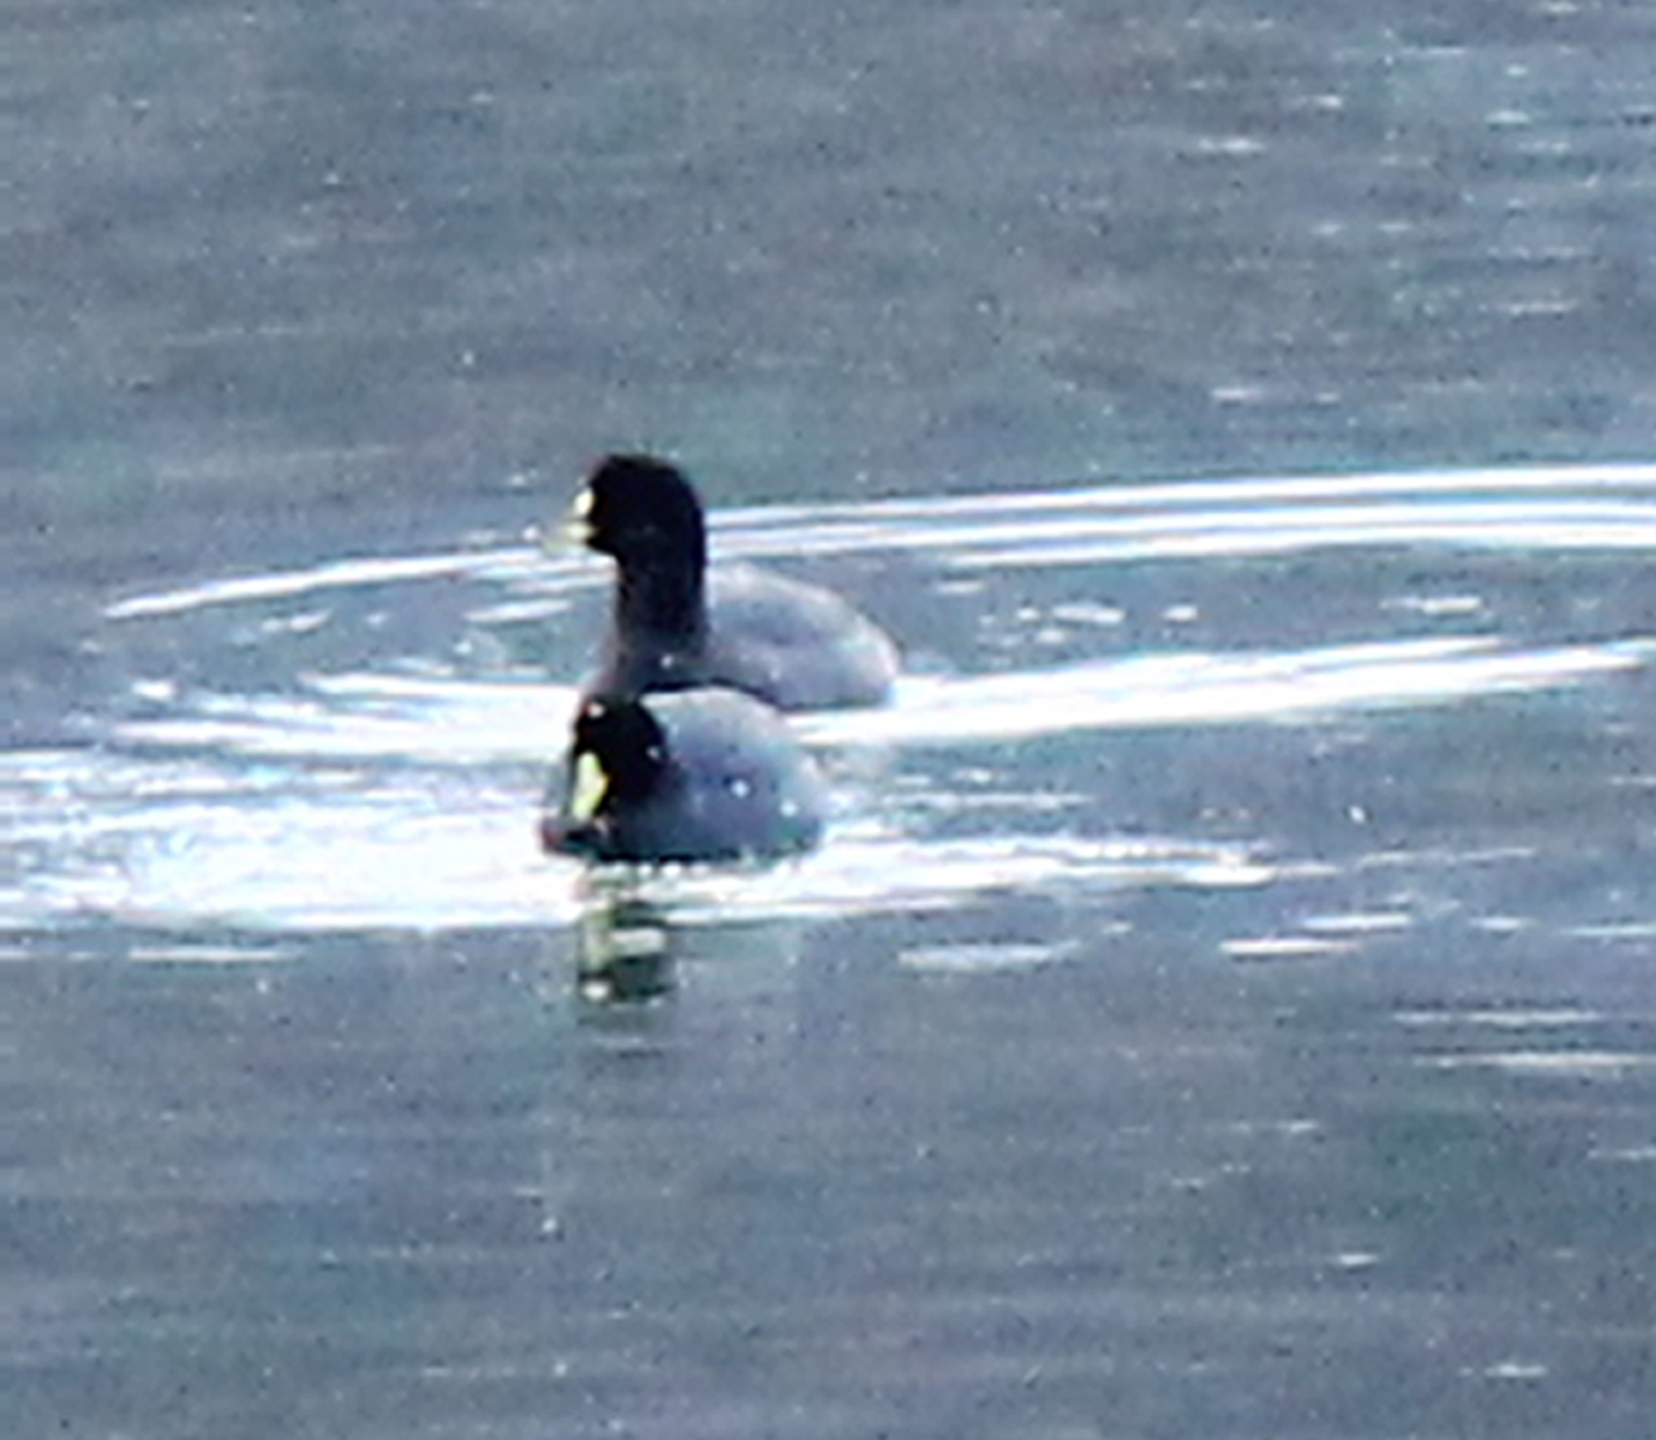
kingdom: Animalia
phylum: Chordata
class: Aves
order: Gruiformes
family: Rallidae
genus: Fulica
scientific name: Fulica leucoptera
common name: White-winged coot
